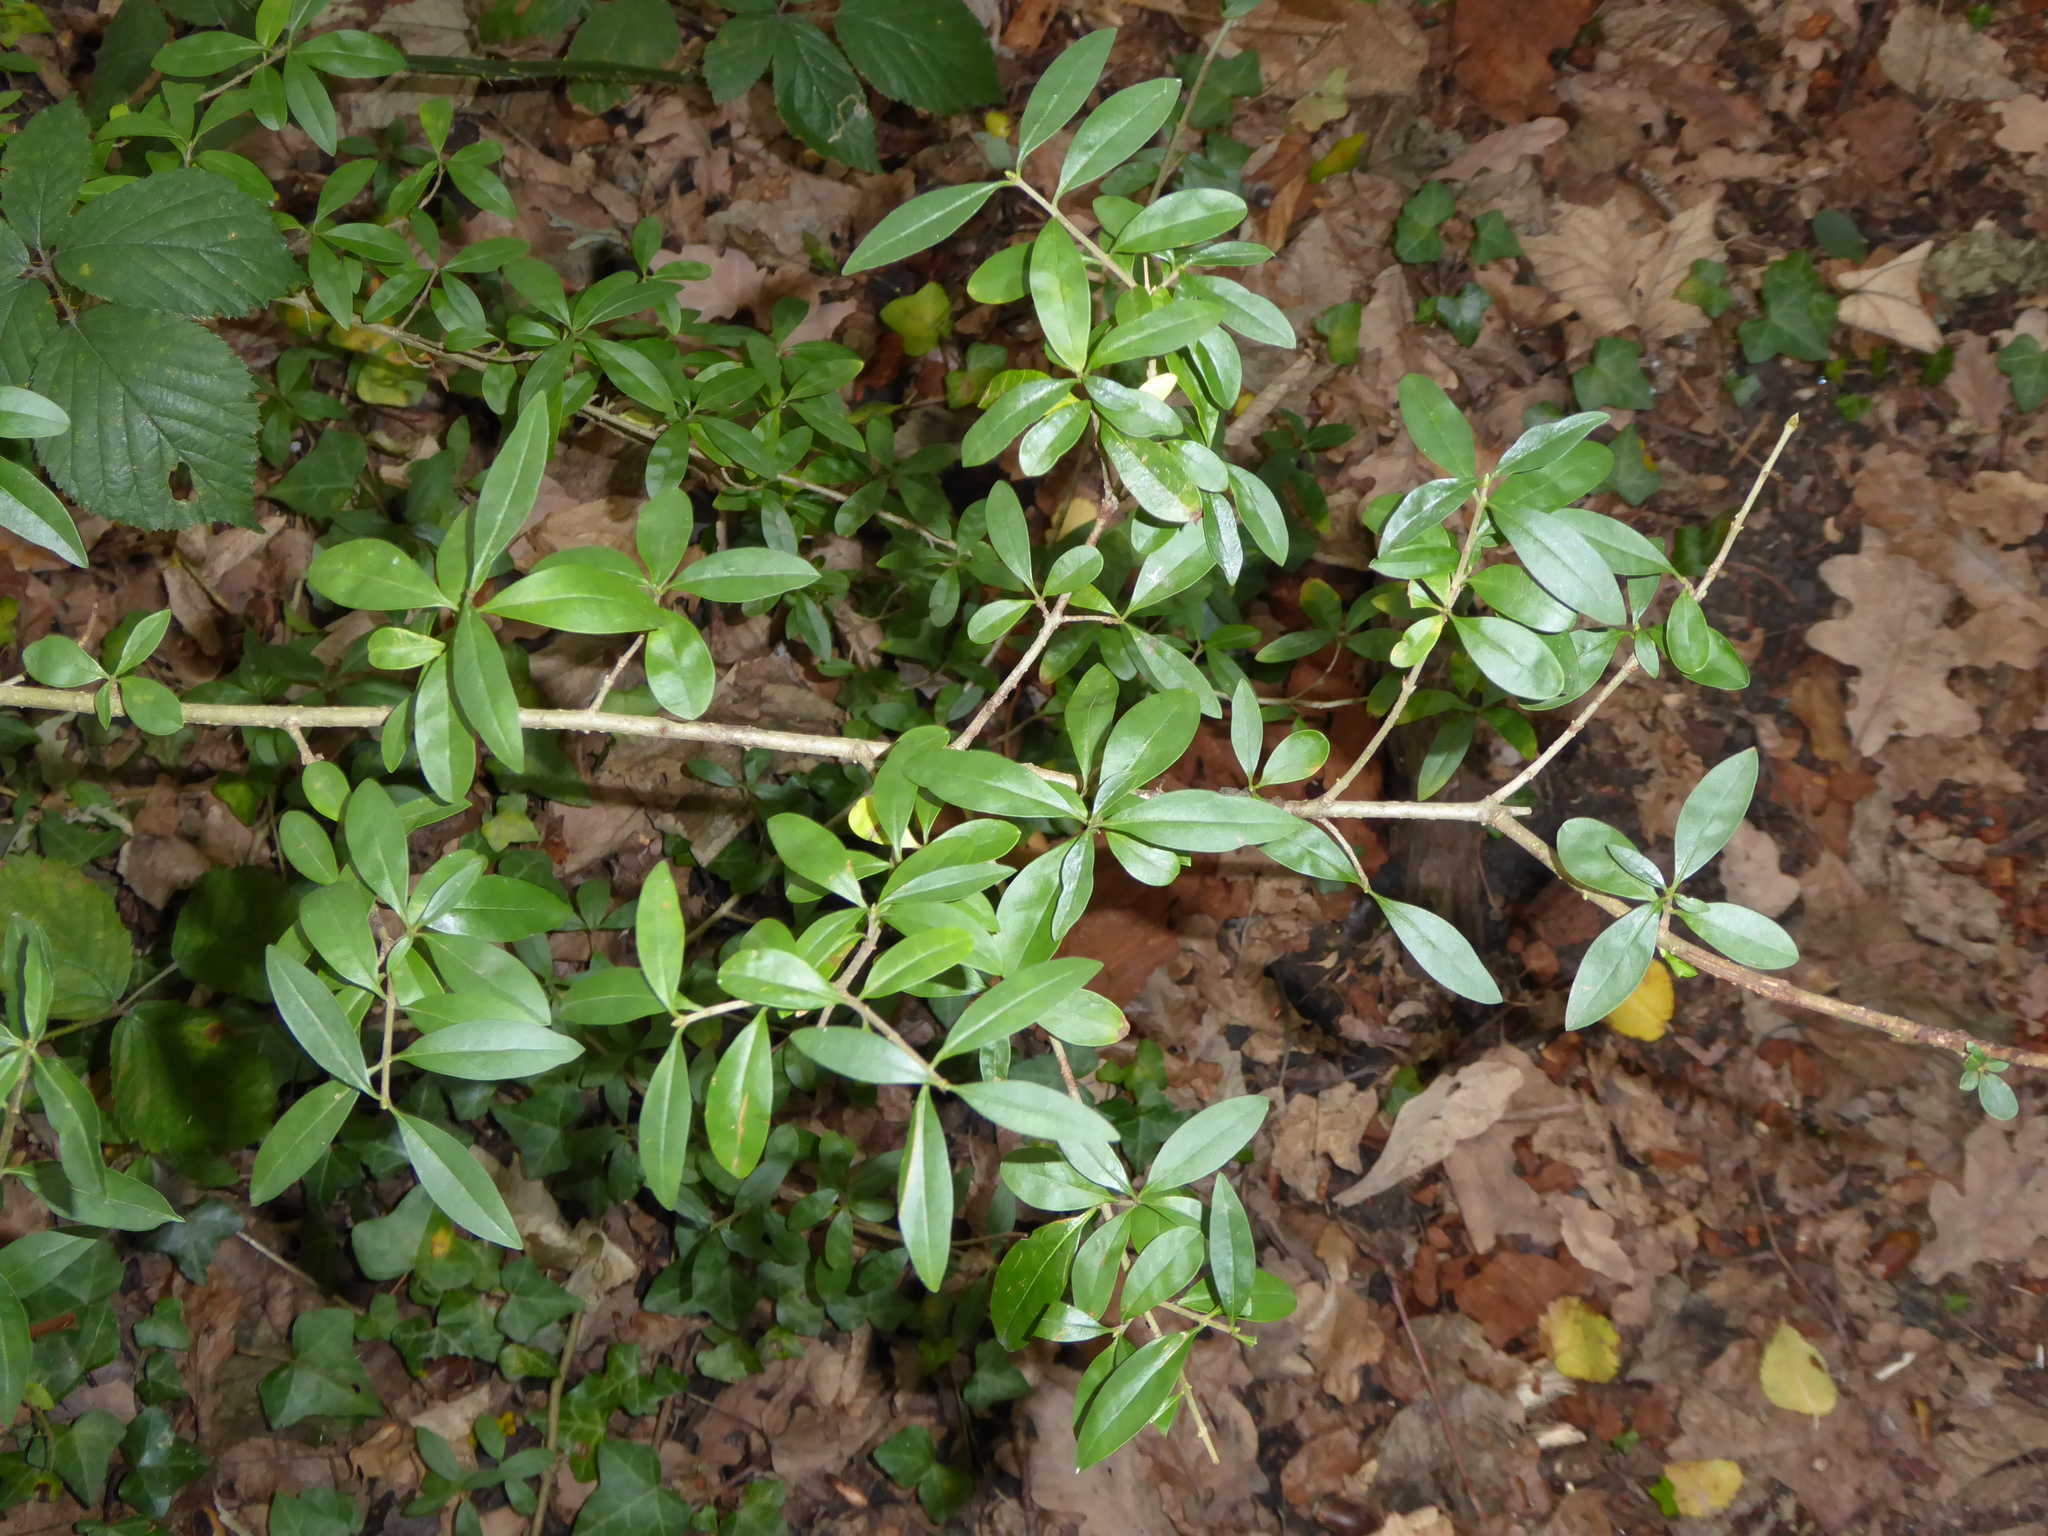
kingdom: Plantae
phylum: Tracheophyta
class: Magnoliopsida
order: Lamiales
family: Oleaceae
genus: Ligustrum
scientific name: Ligustrum vulgare
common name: Wild privet
